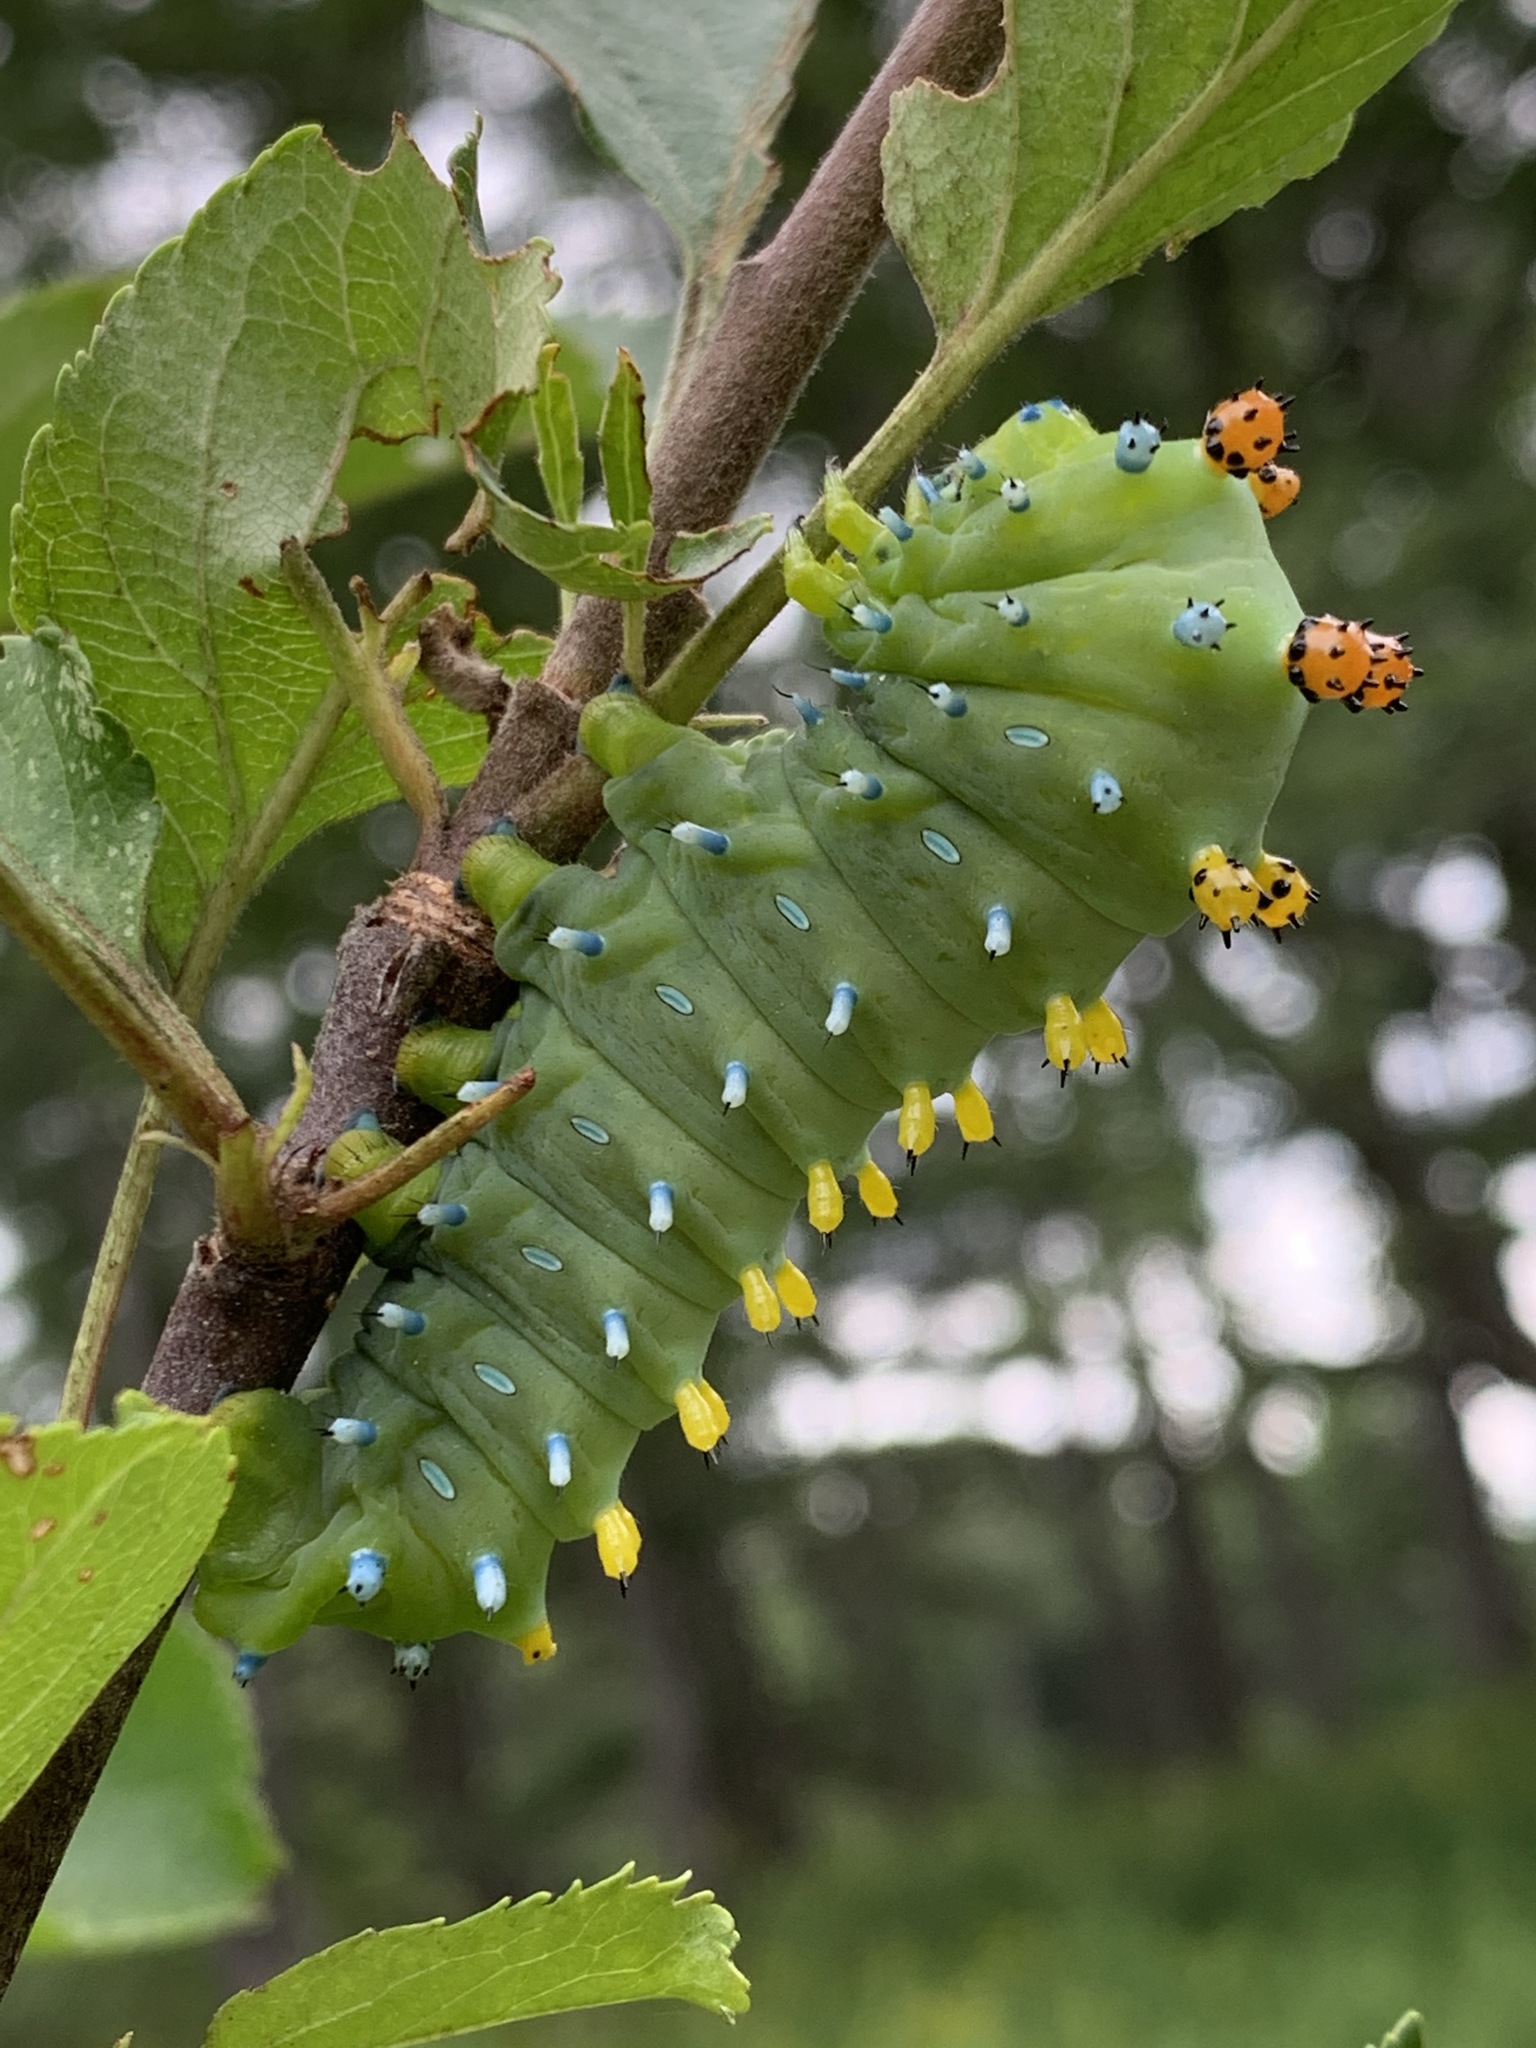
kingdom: Animalia
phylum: Arthropoda
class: Insecta
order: Lepidoptera
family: Saturniidae
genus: Hyalophora
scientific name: Hyalophora cecropia
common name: Cecropia silkmoth
